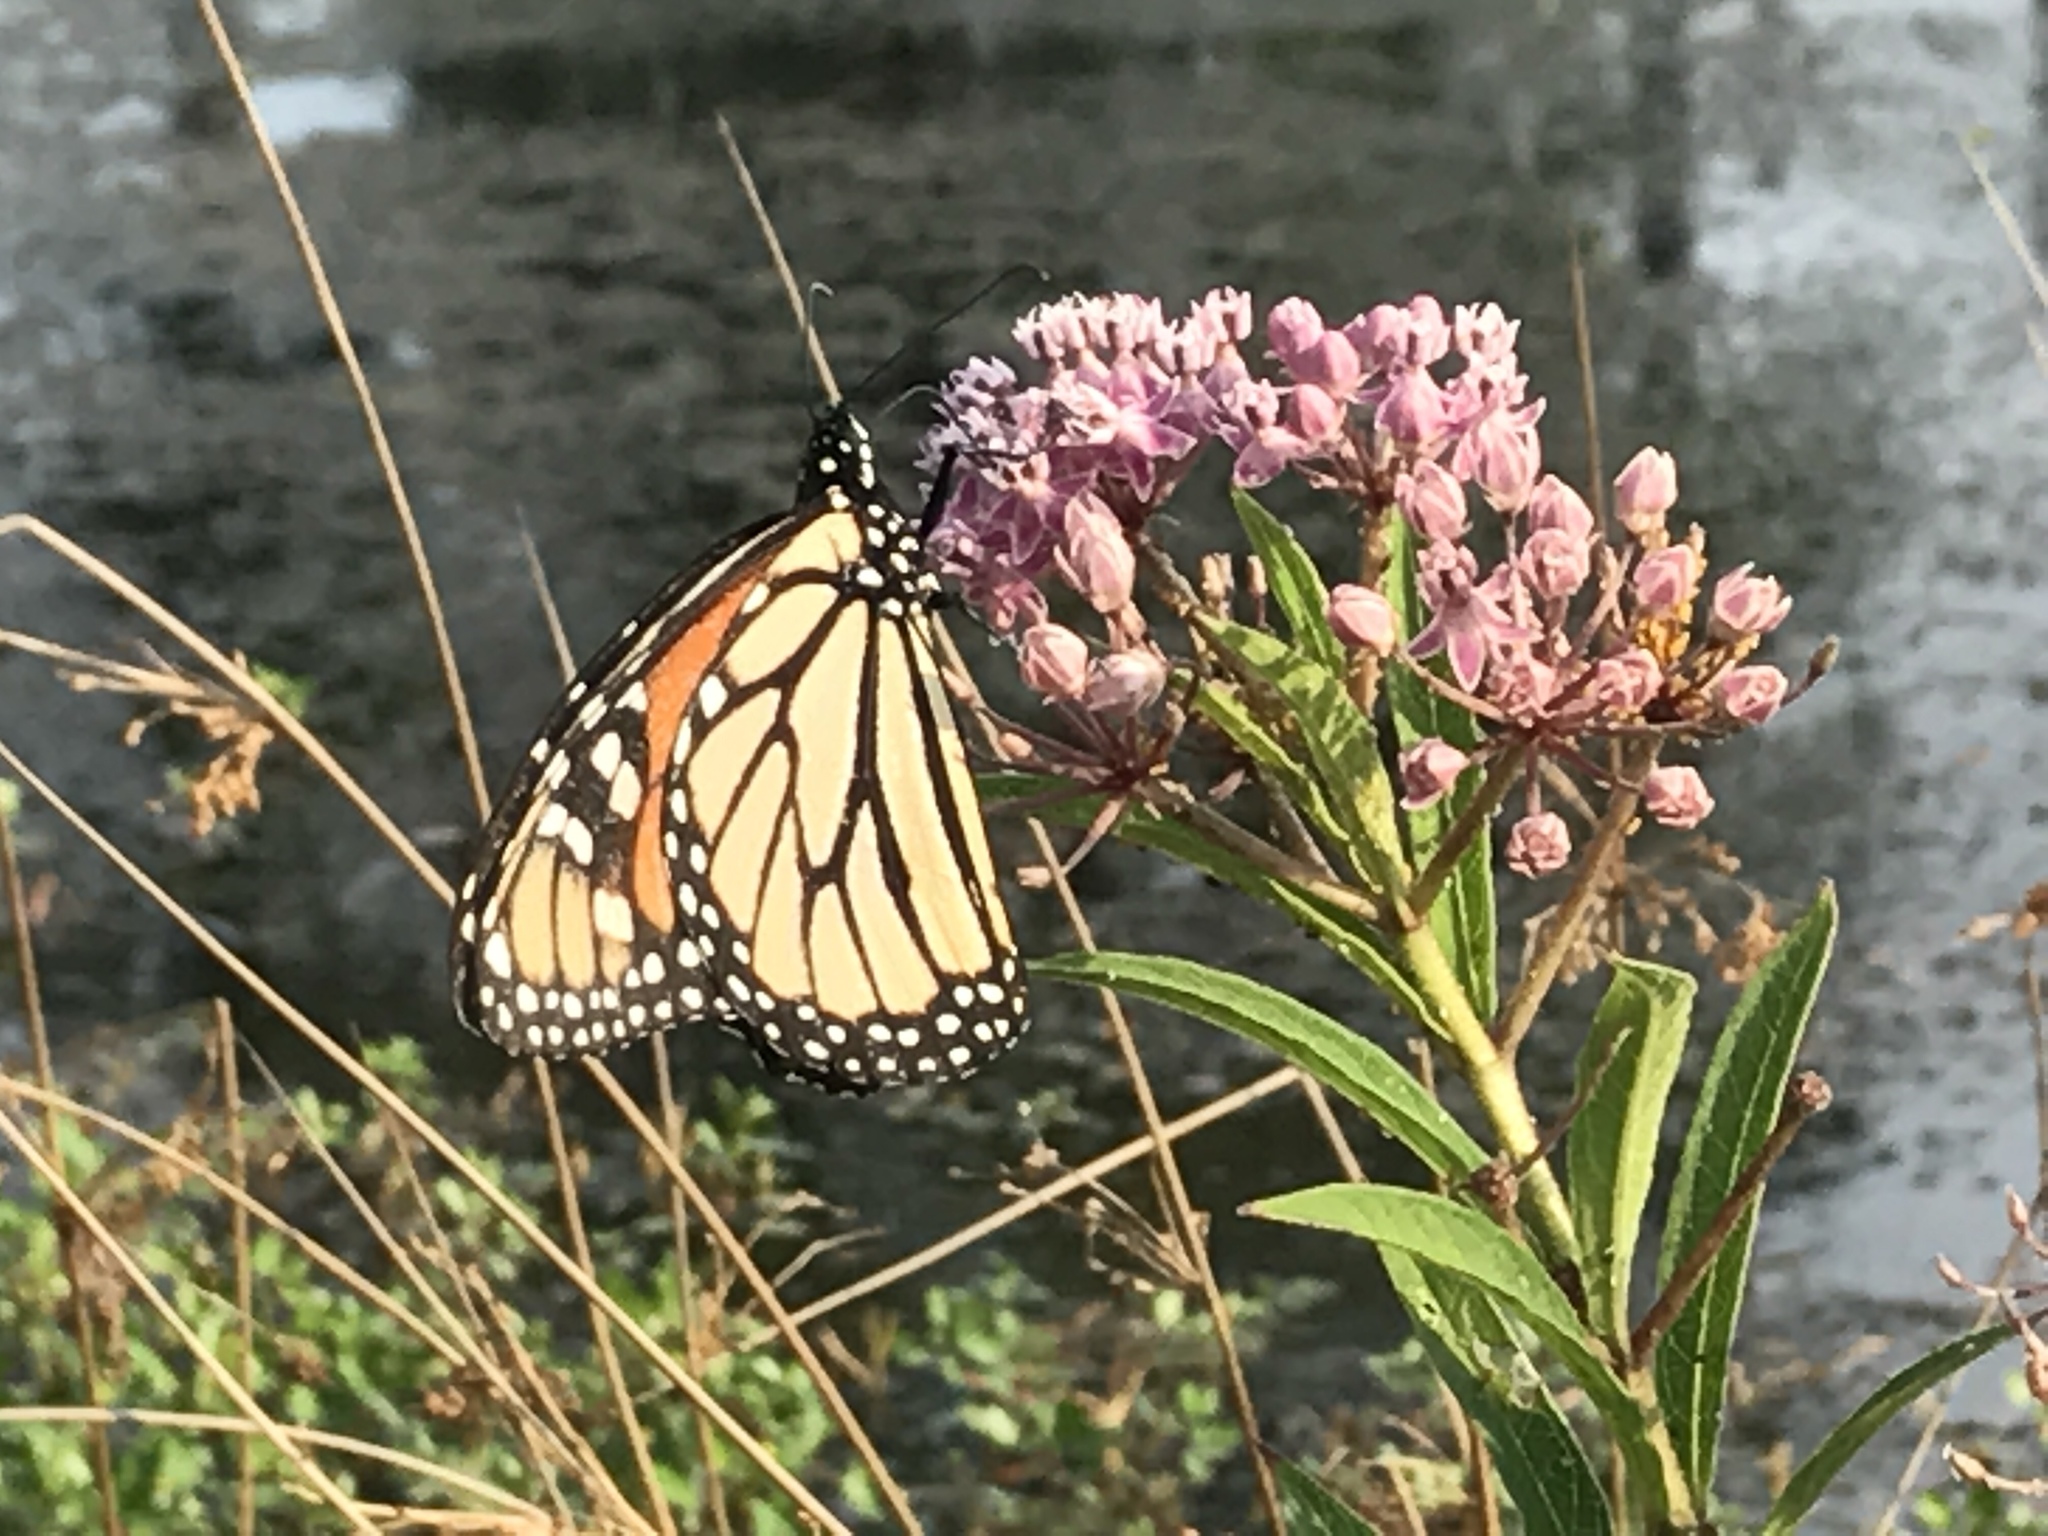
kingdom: Animalia
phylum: Arthropoda
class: Insecta
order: Lepidoptera
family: Nymphalidae
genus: Danaus
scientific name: Danaus plexippus
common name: Monarch
